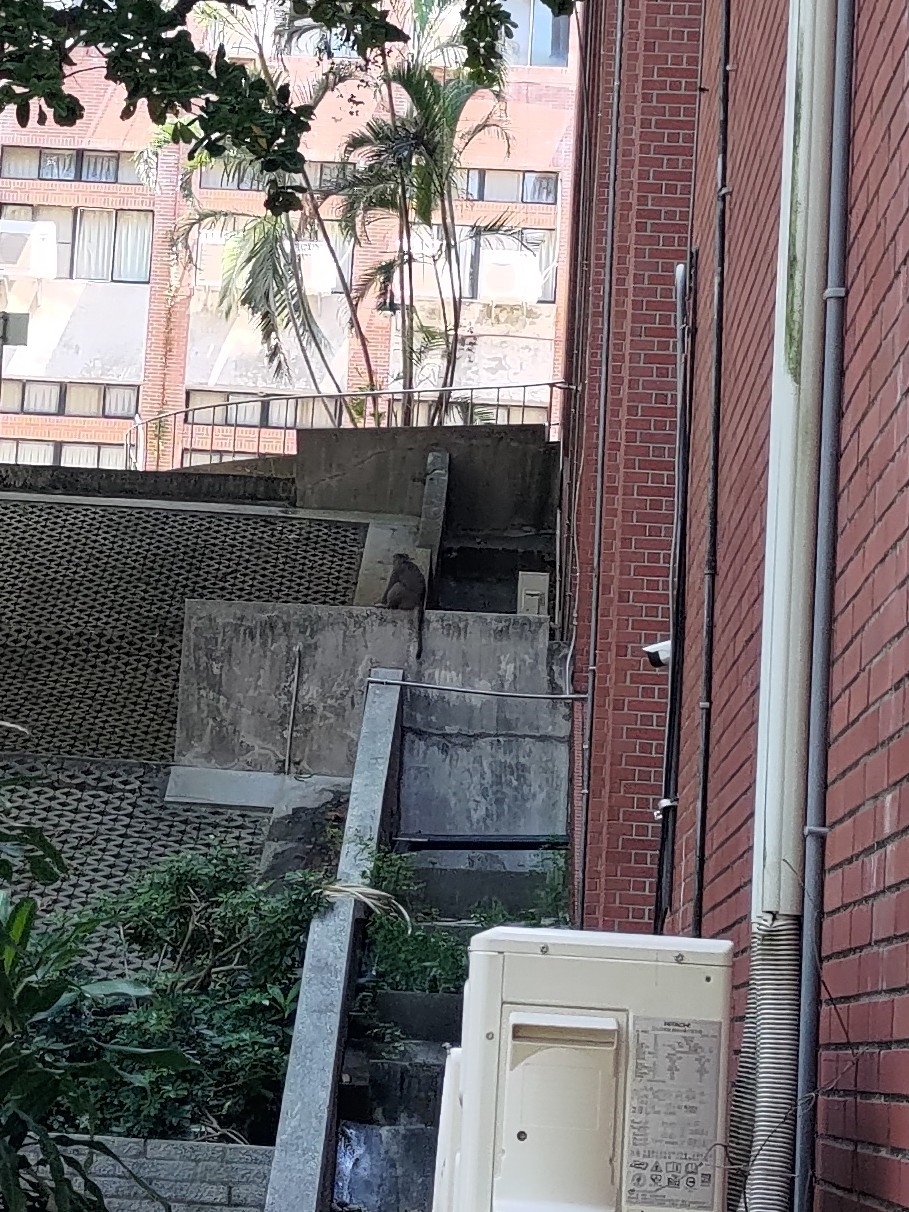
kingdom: Animalia
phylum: Chordata
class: Mammalia
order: Primates
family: Cercopithecidae
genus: Macaca
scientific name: Macaca cyclopis
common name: Formosan rock macaque
